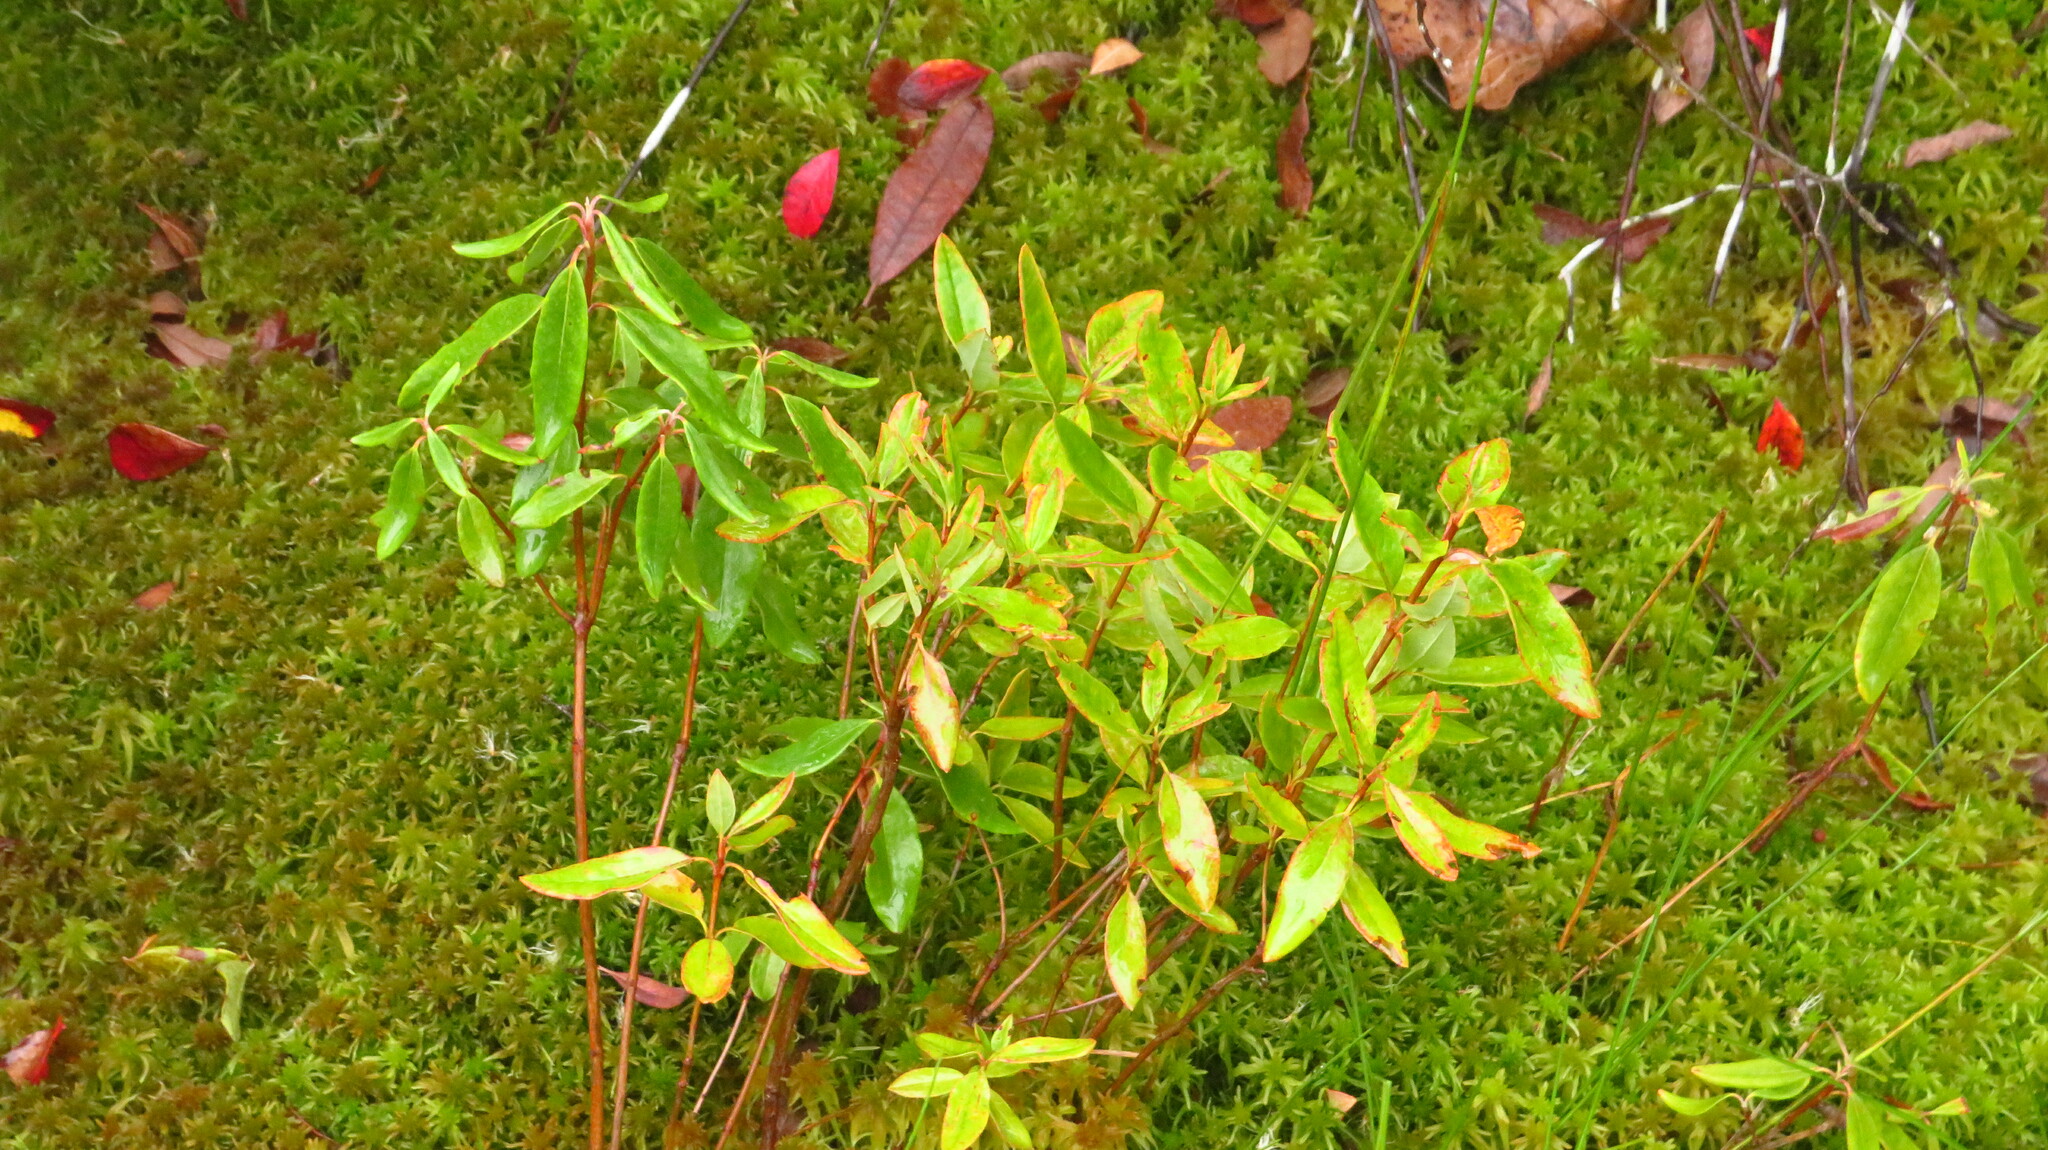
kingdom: Plantae
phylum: Tracheophyta
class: Magnoliopsida
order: Ericales
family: Ericaceae
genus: Kalmia
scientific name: Kalmia angustifolia
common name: Sheep-laurel
